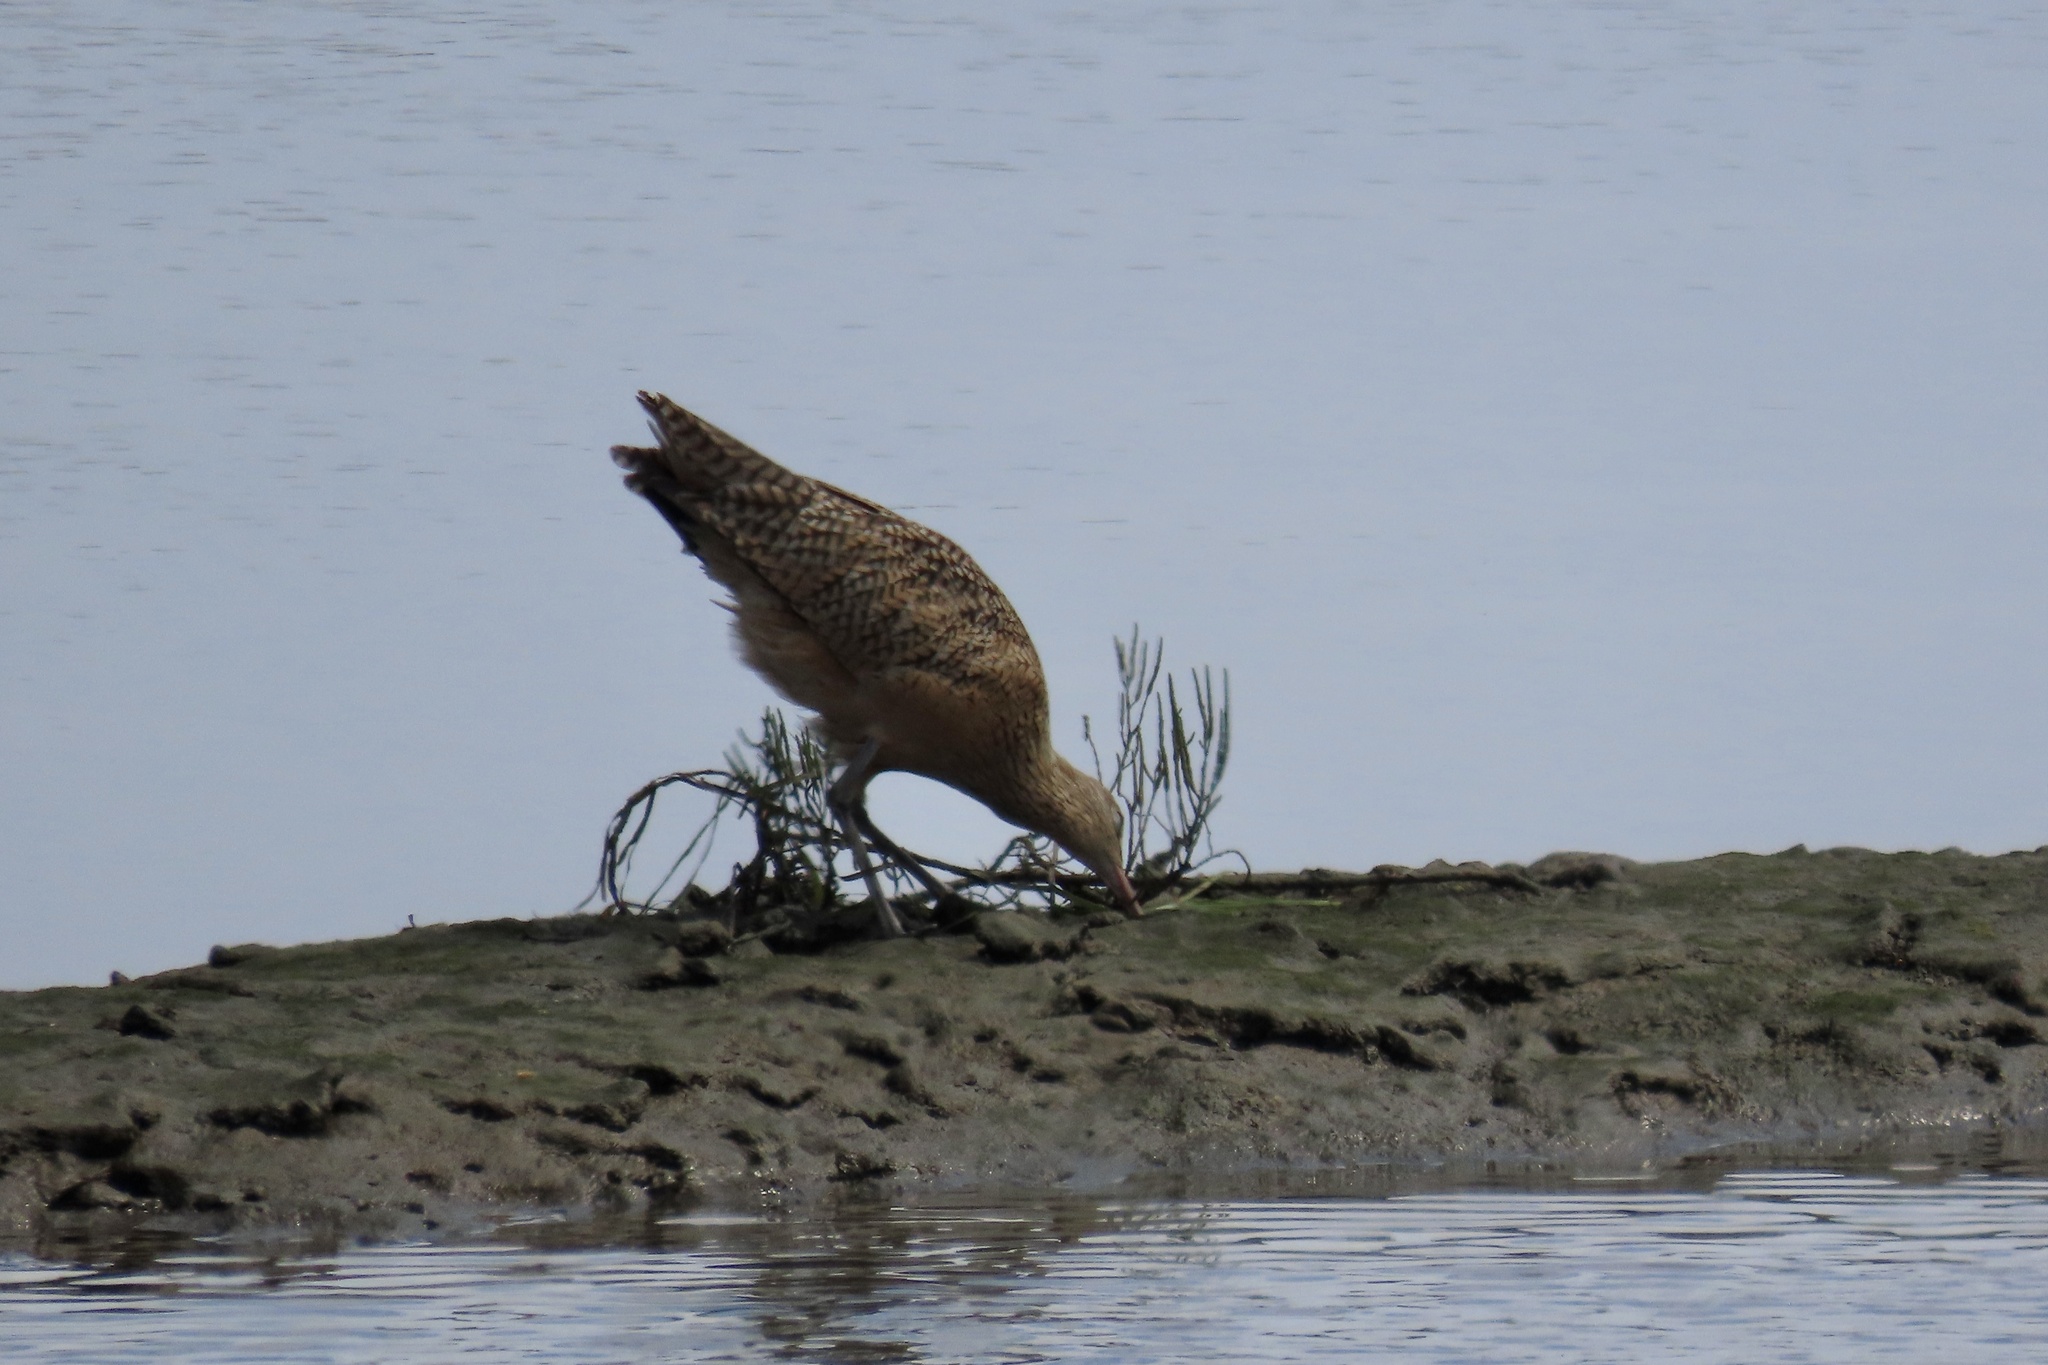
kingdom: Animalia
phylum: Chordata
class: Aves
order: Charadriiformes
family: Scolopacidae
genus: Numenius
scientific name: Numenius americanus
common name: Long-billed curlew
